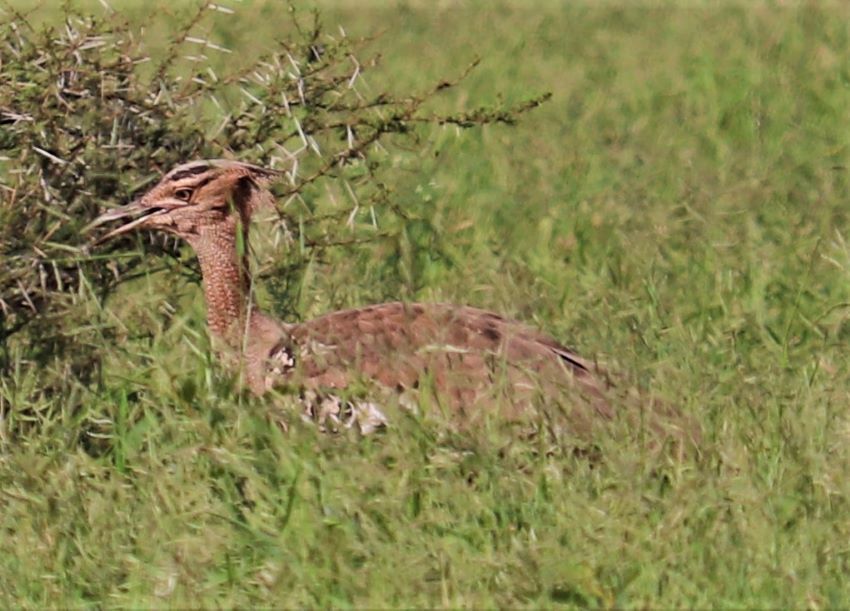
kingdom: Animalia
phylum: Chordata
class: Aves
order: Otidiformes
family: Otididae
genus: Ardeotis
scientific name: Ardeotis kori
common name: Kori bustard
